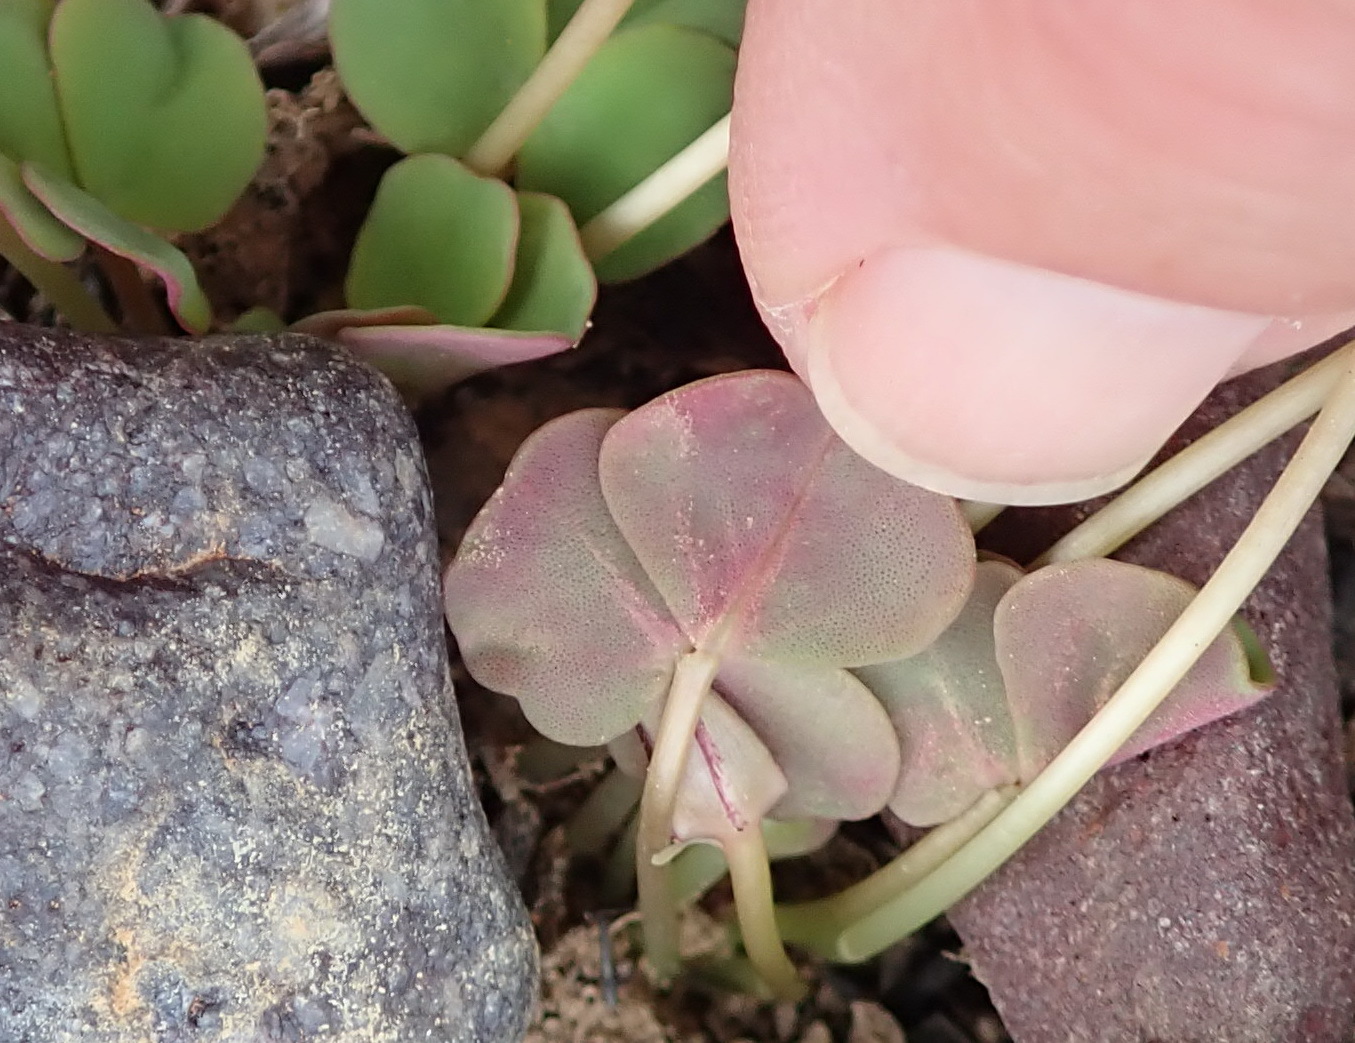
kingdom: Plantae
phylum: Tracheophyta
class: Magnoliopsida
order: Oxalidales
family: Oxalidaceae
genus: Oxalis
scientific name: Oxalis depressa
